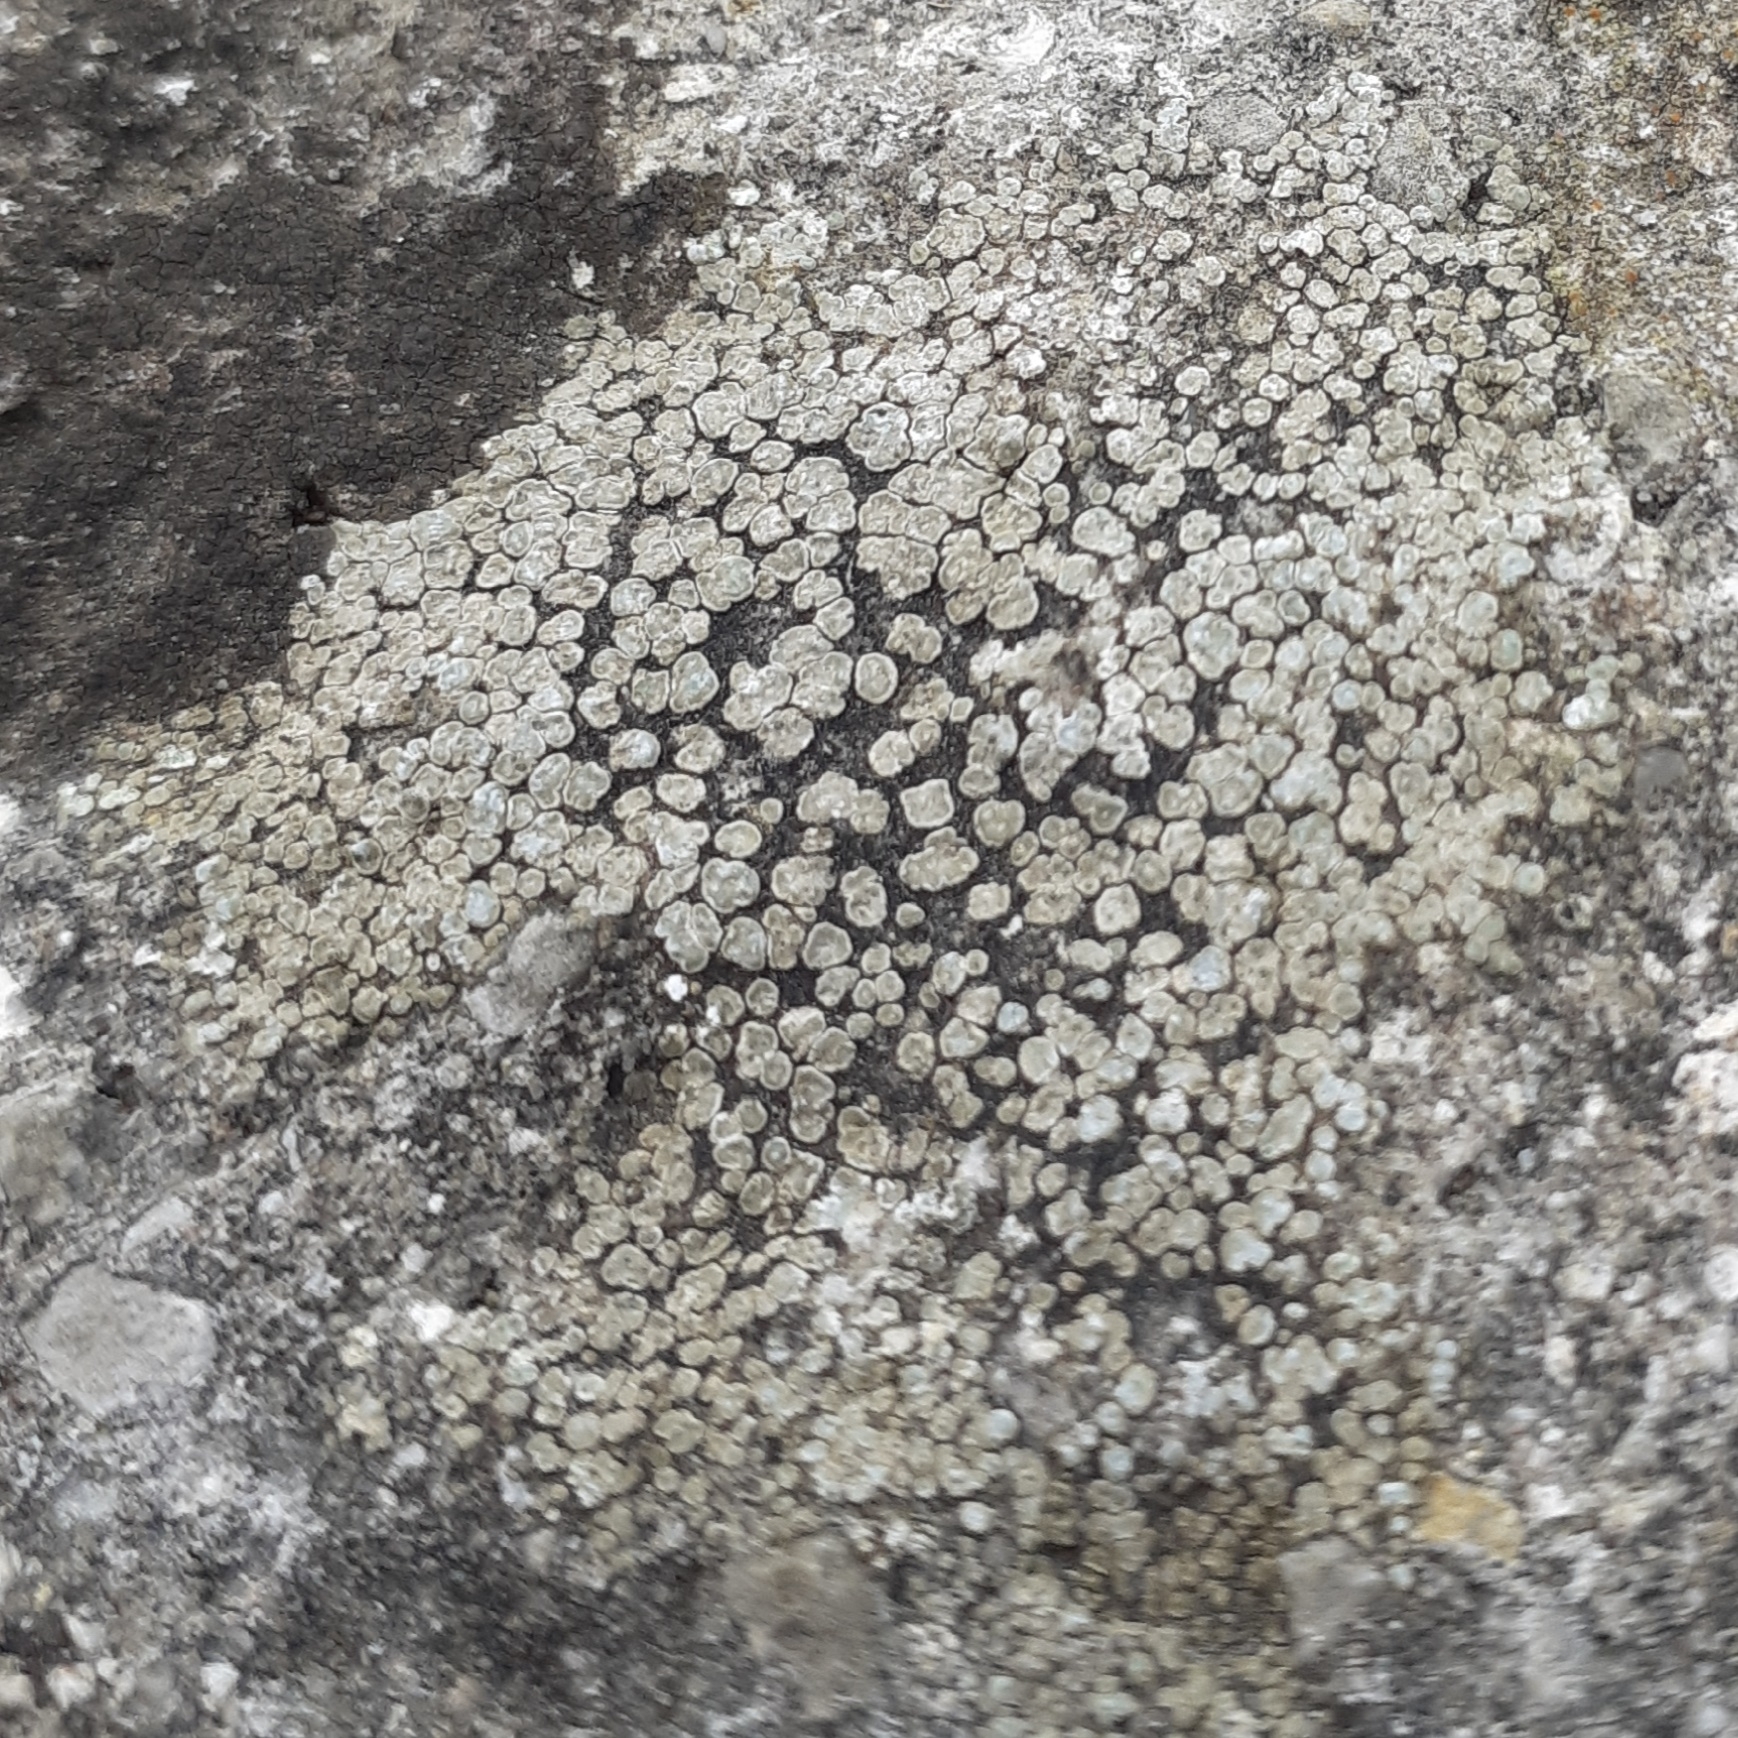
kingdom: Fungi
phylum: Ascomycota
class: Lecanoromycetes
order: Pertusariales
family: Megasporaceae
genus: Circinaria
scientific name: Circinaria contorta
